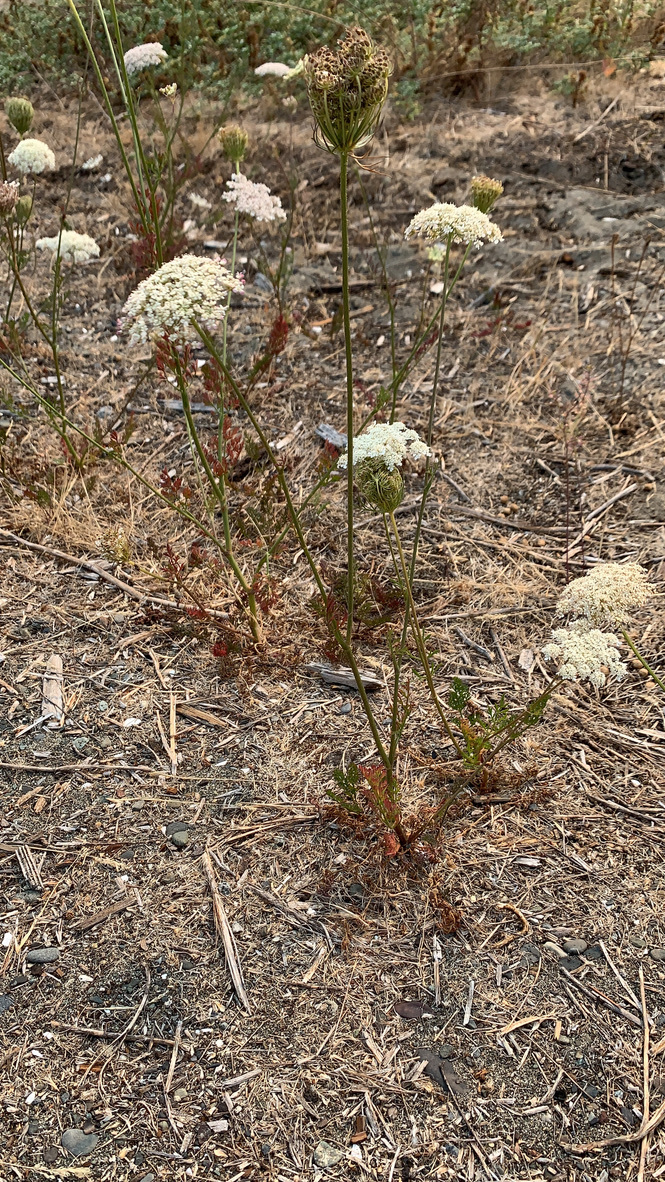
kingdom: Plantae
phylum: Tracheophyta
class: Magnoliopsida
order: Apiales
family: Apiaceae
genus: Daucus
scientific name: Daucus carota
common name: Wild carrot
